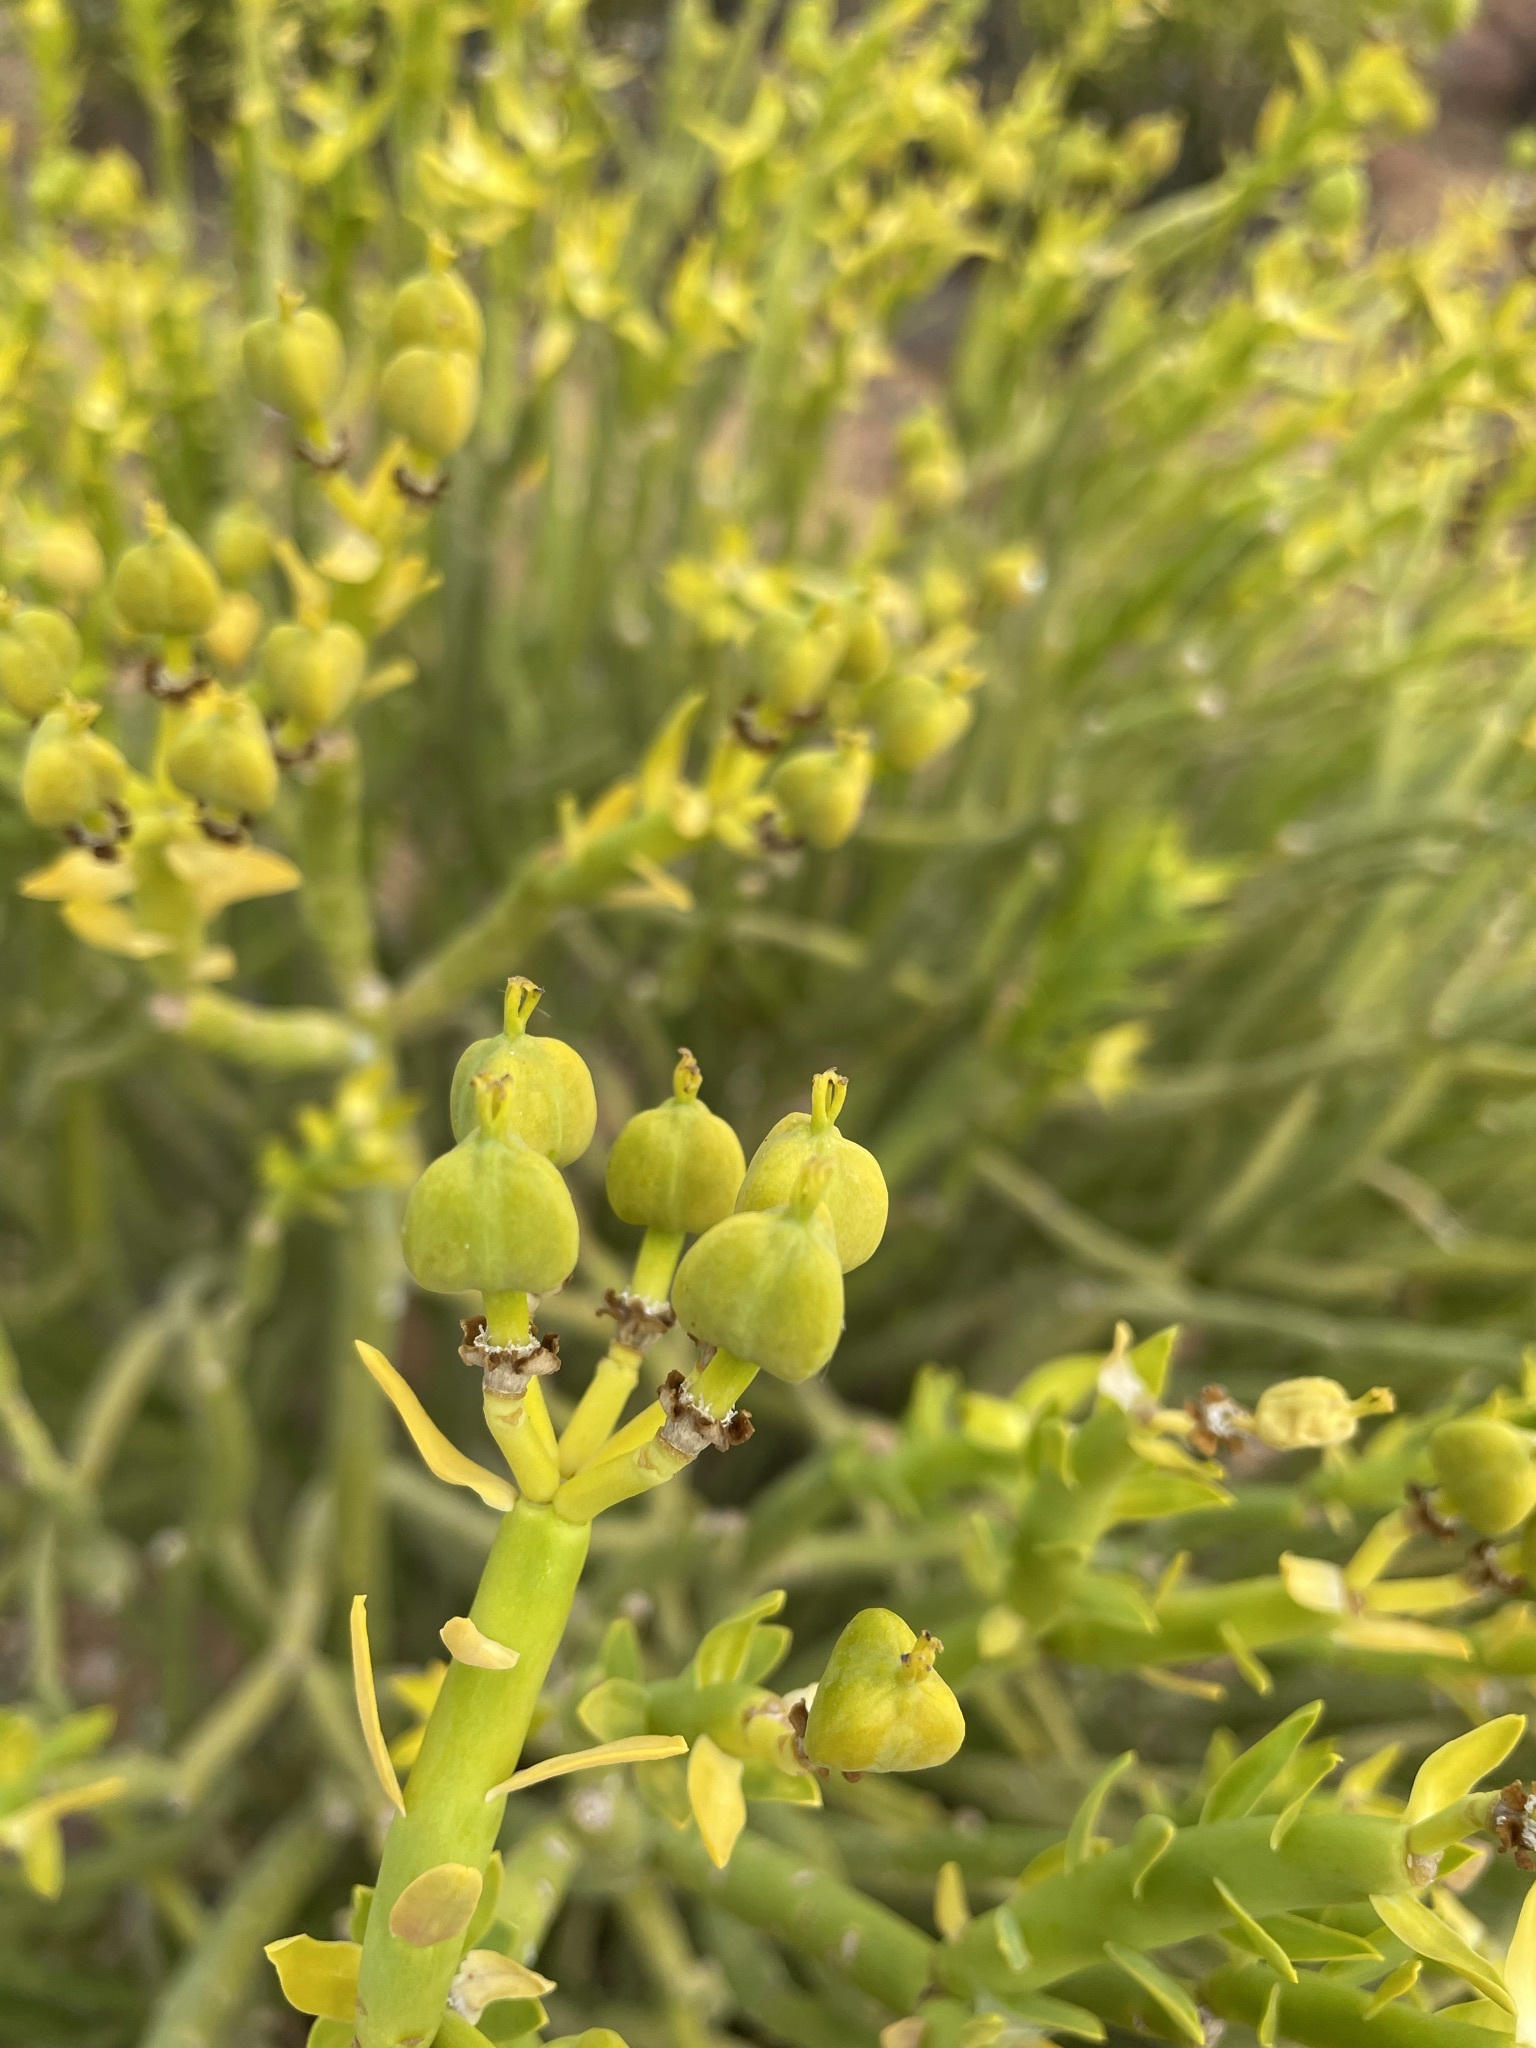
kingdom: Plantae
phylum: Tracheophyta
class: Magnoliopsida
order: Malpighiales
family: Euphorbiaceae
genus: Euphorbia
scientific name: Euphorbia mauritanica
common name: Jackal's-food
